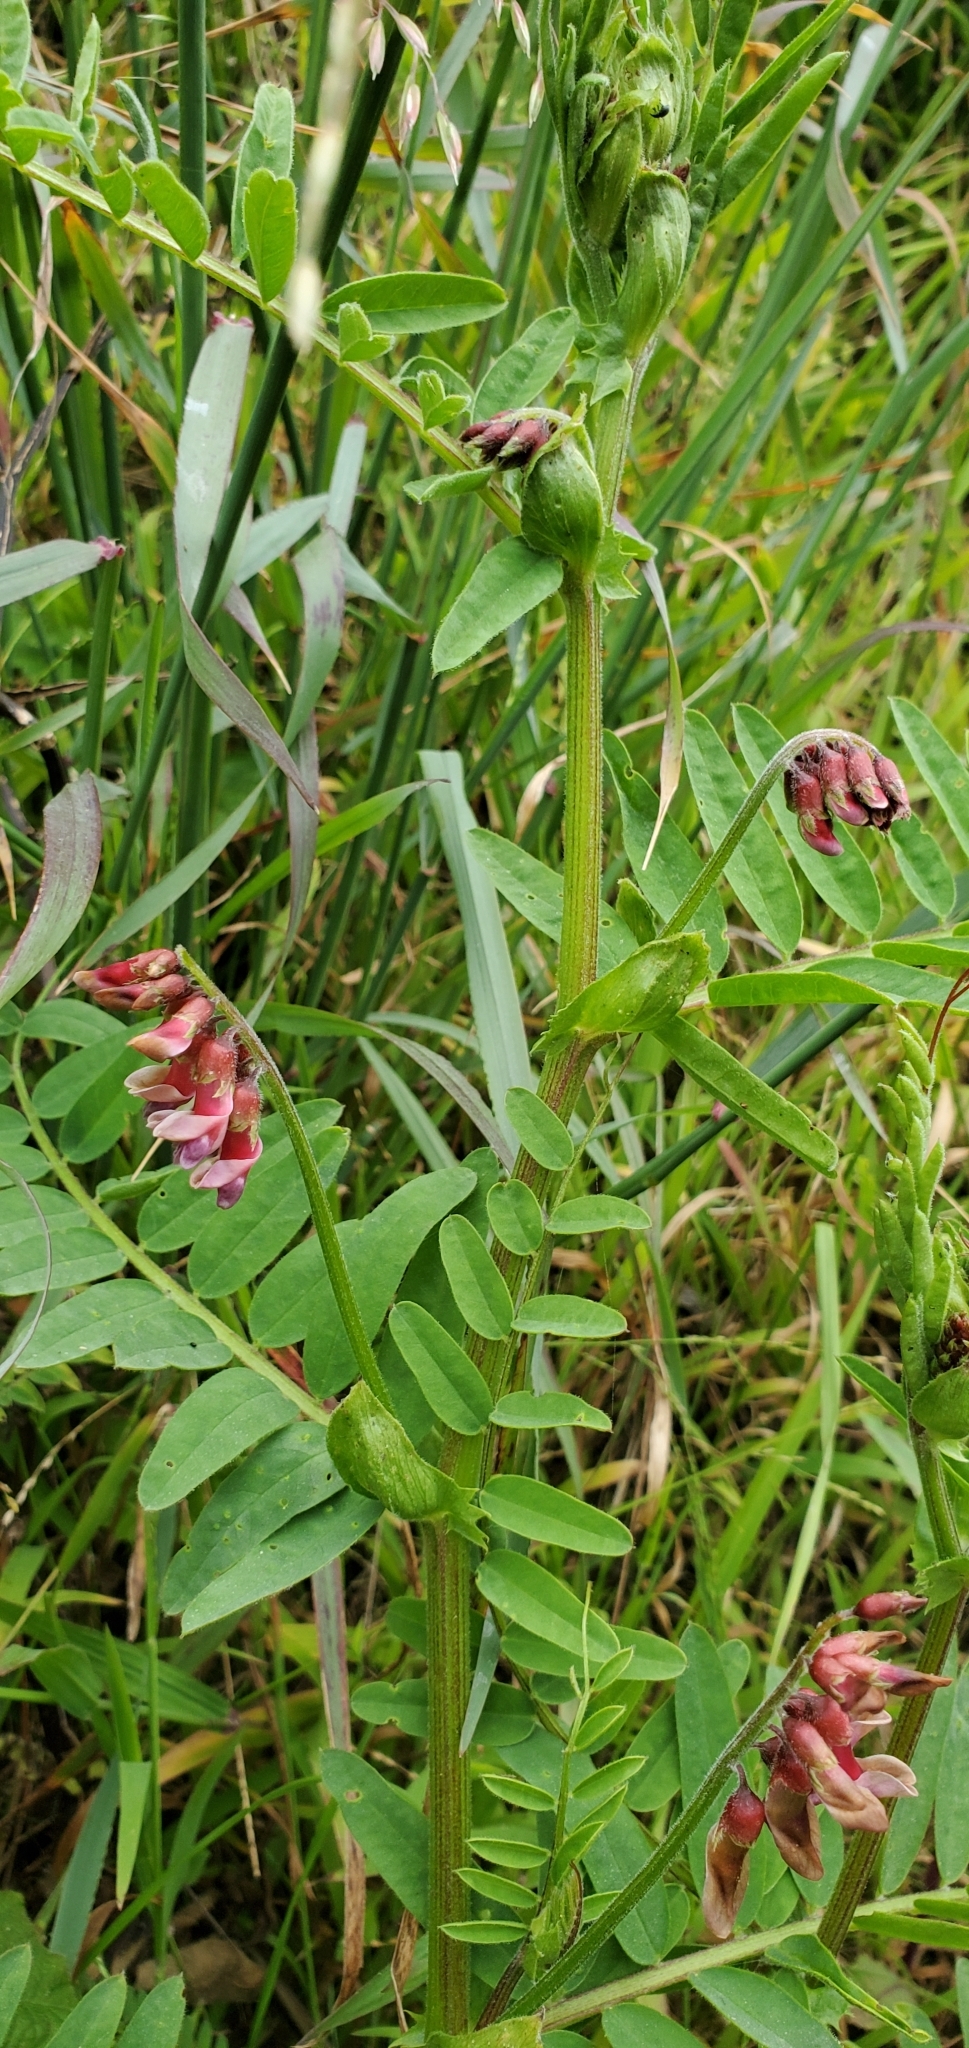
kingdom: Plantae
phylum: Tracheophyta
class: Magnoliopsida
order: Fabales
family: Fabaceae
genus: Vicia
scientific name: Vicia
